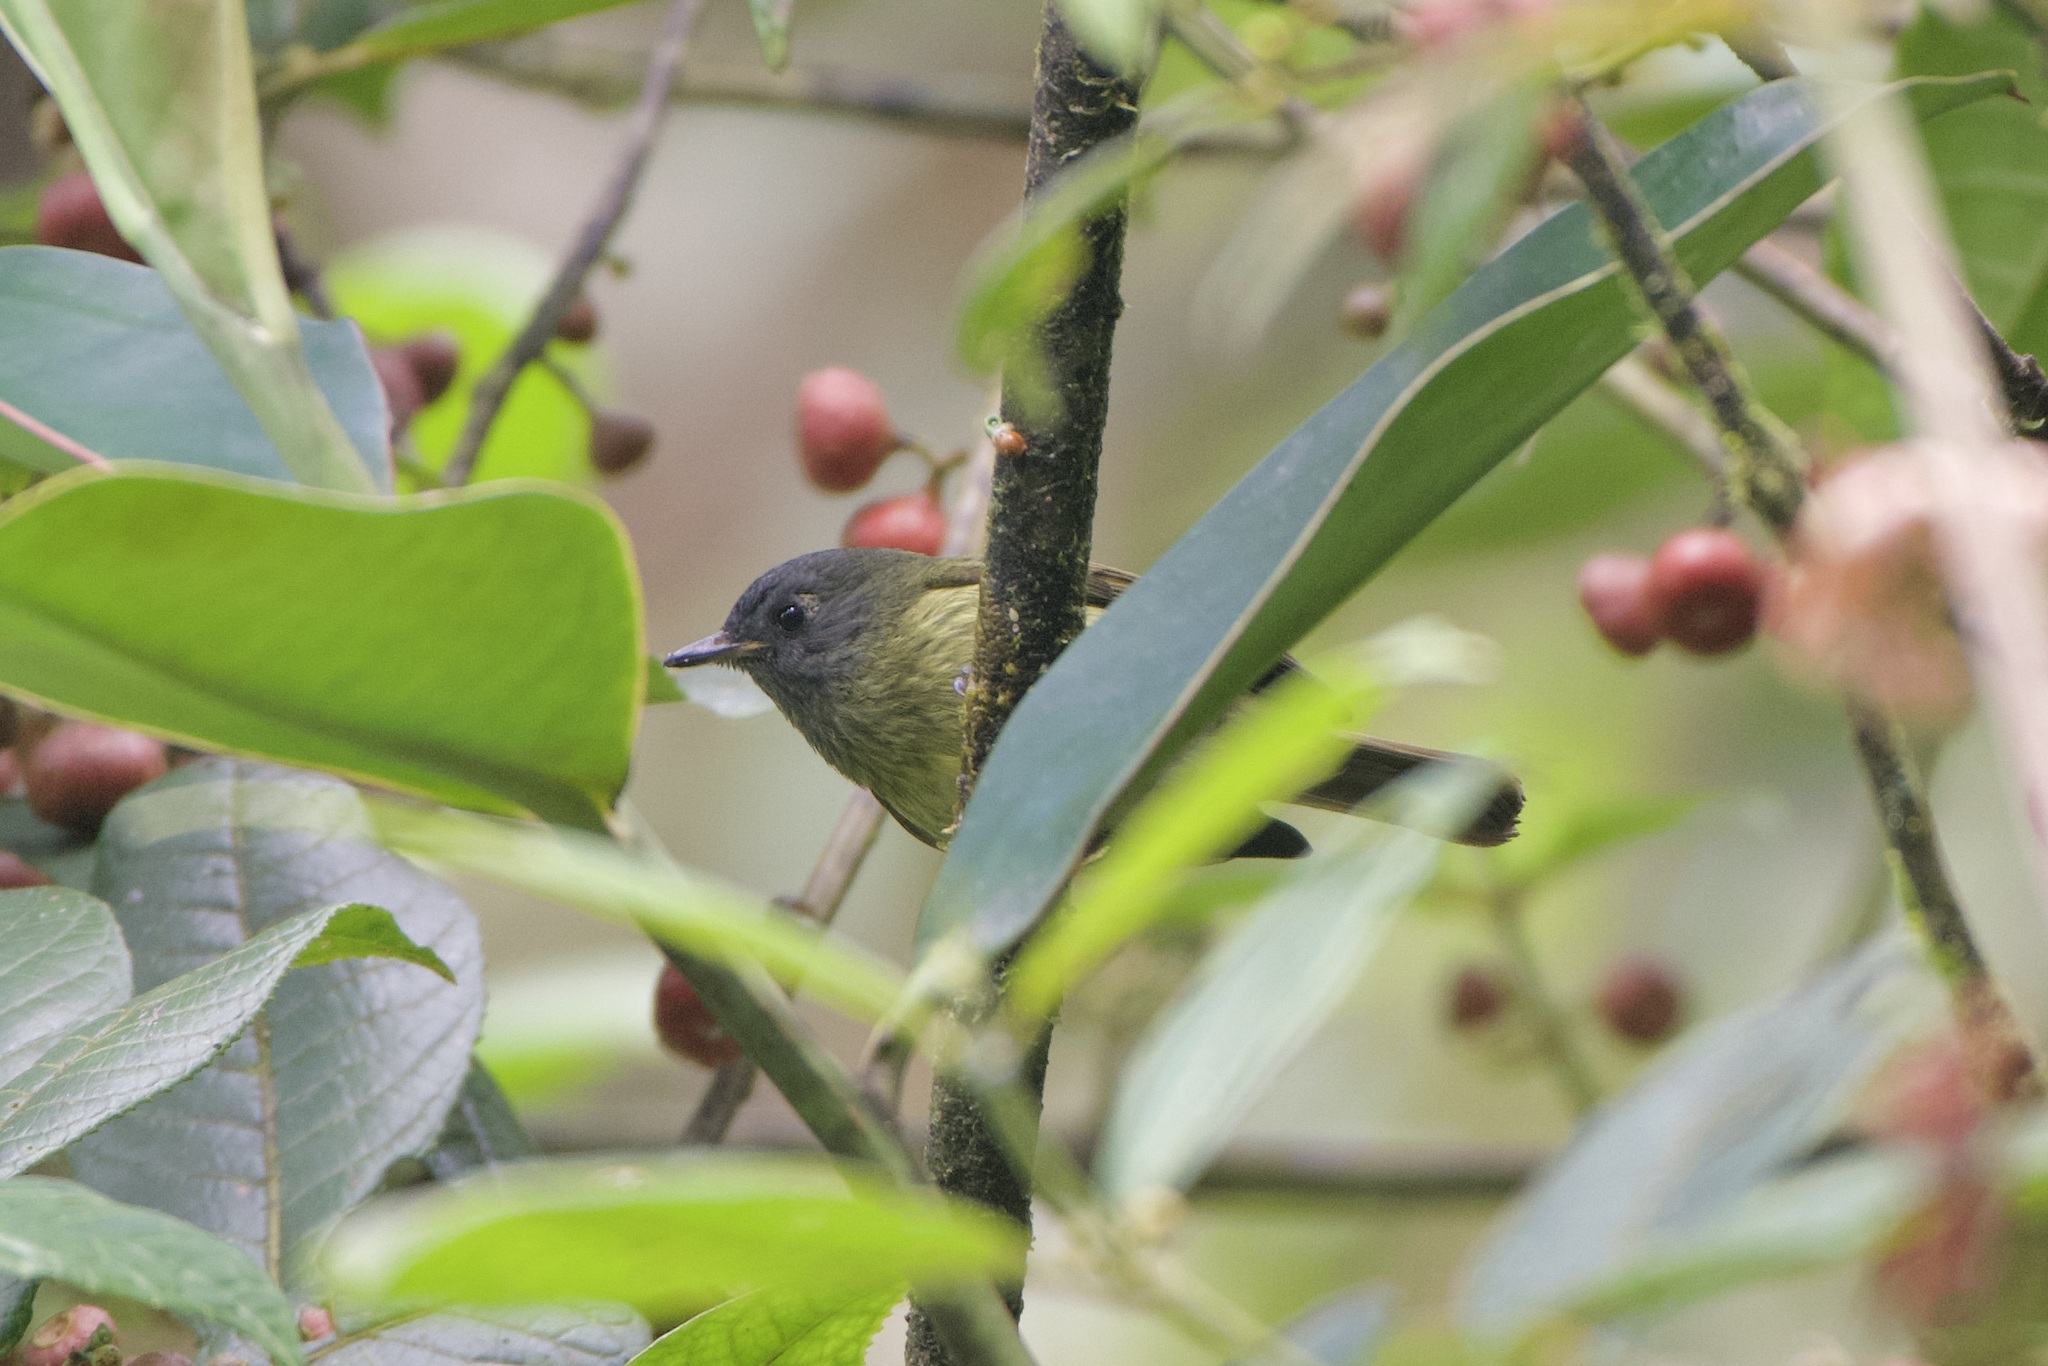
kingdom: Animalia
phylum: Chordata
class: Aves
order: Passeriformes
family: Tyrannidae
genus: Mionectes
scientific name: Mionectes striaticollis
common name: Streak-necked flycatcher
